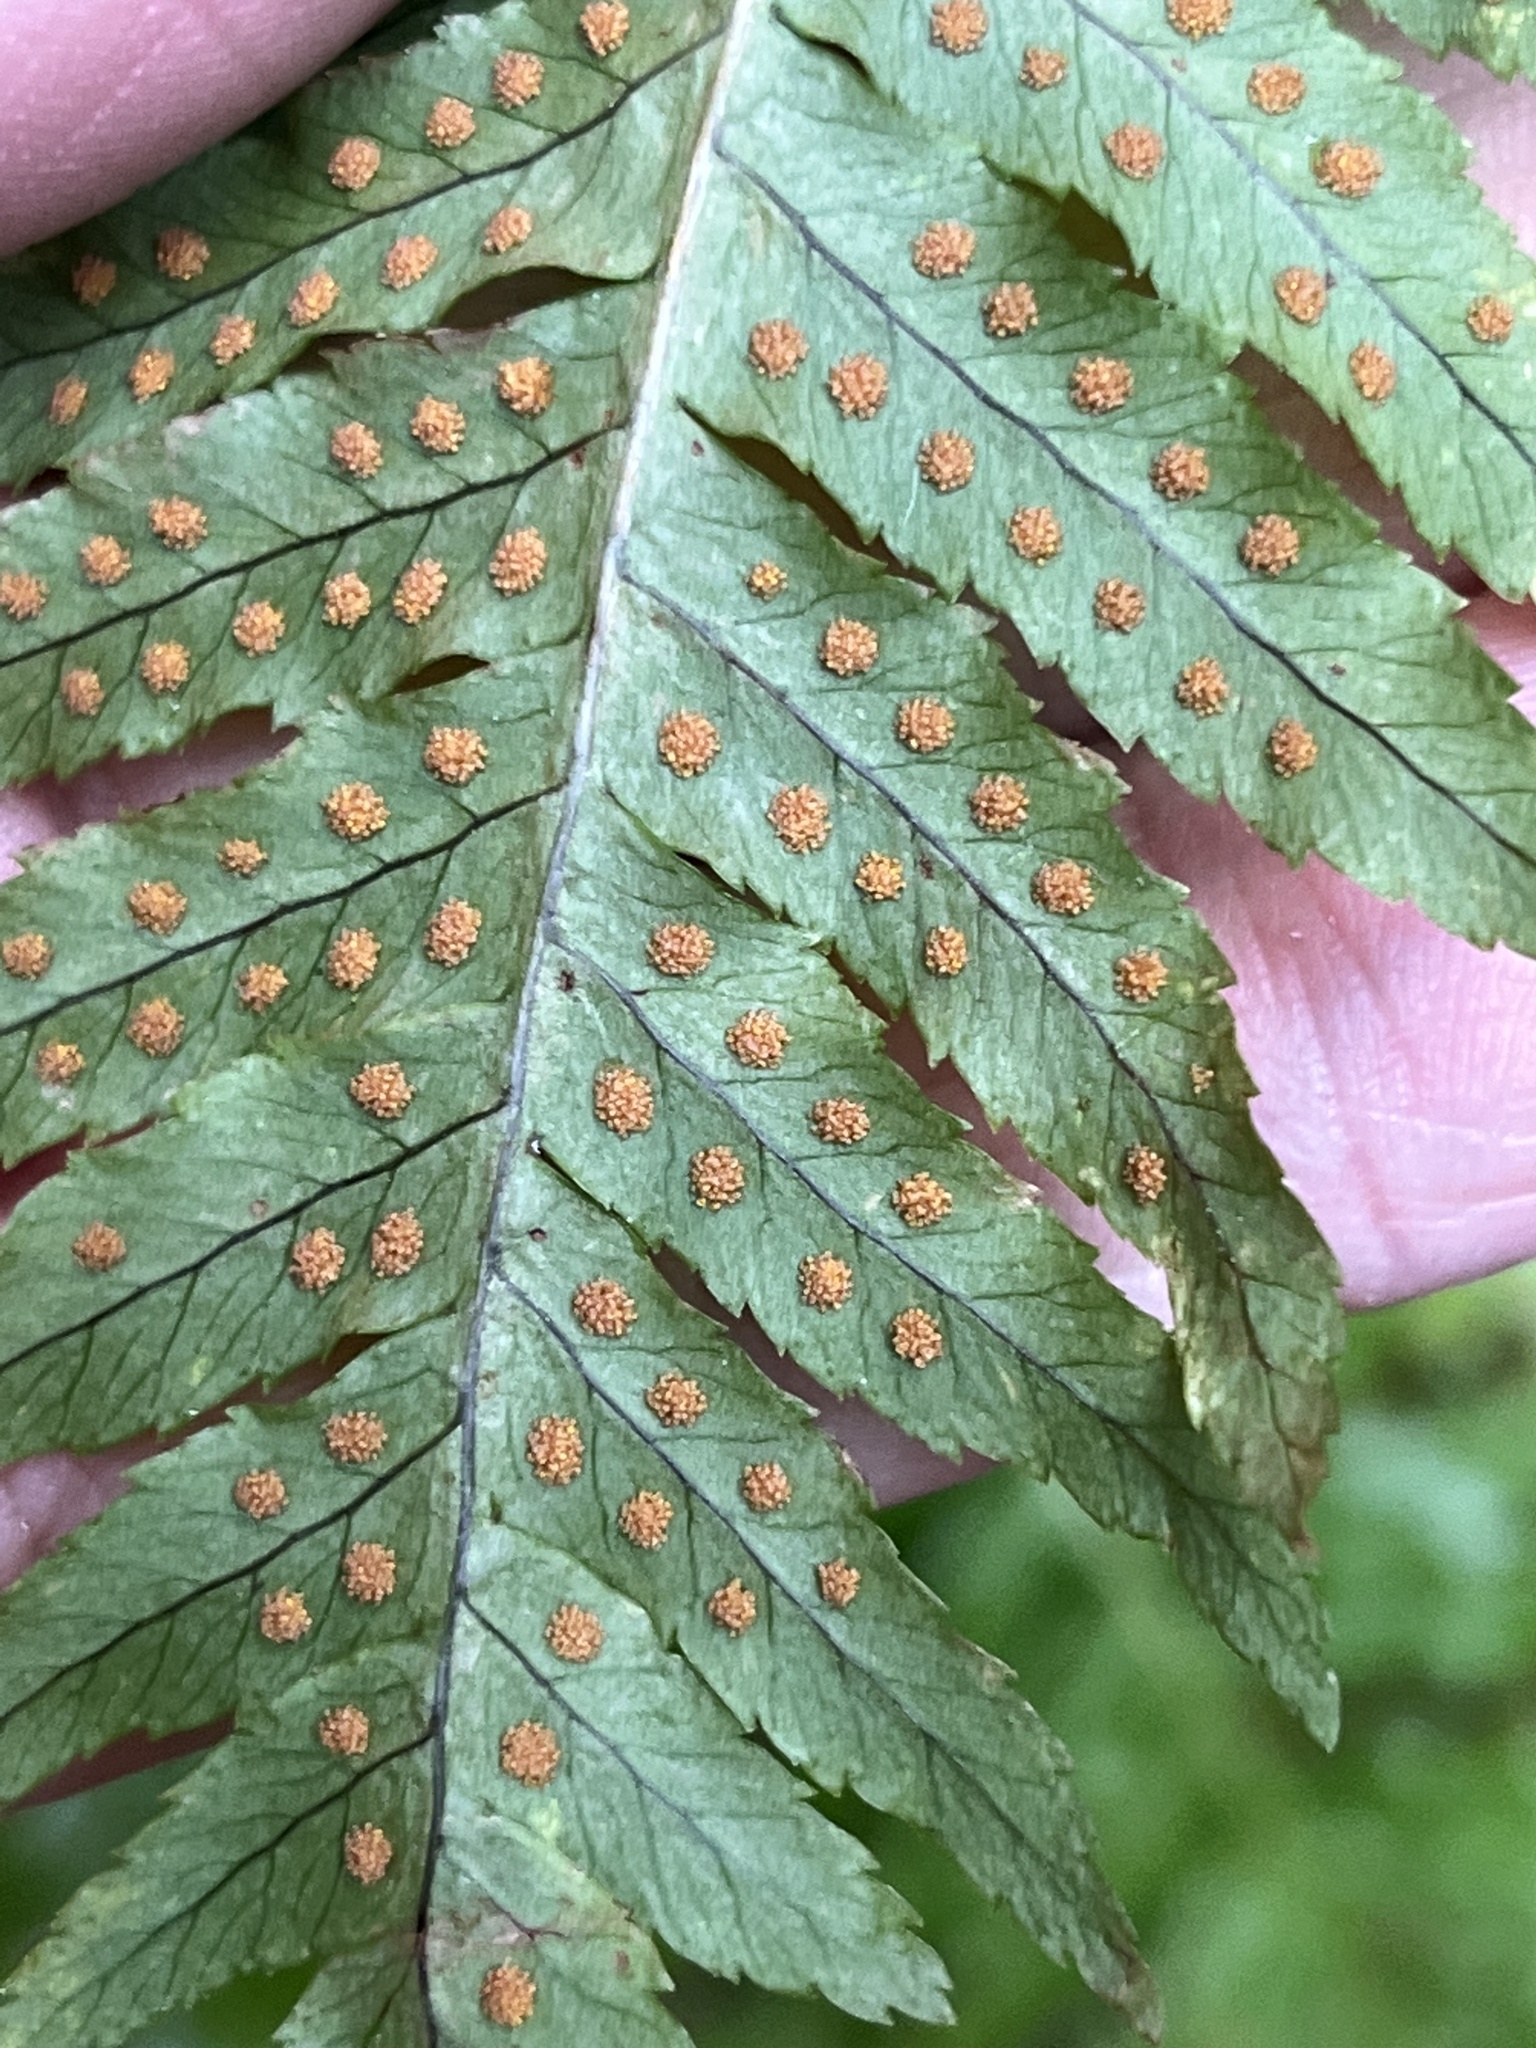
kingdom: Plantae
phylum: Tracheophyta
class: Polypodiopsida
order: Polypodiales
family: Polypodiaceae
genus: Polypodium
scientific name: Polypodium glycyrrhiza
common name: Licorice fern
